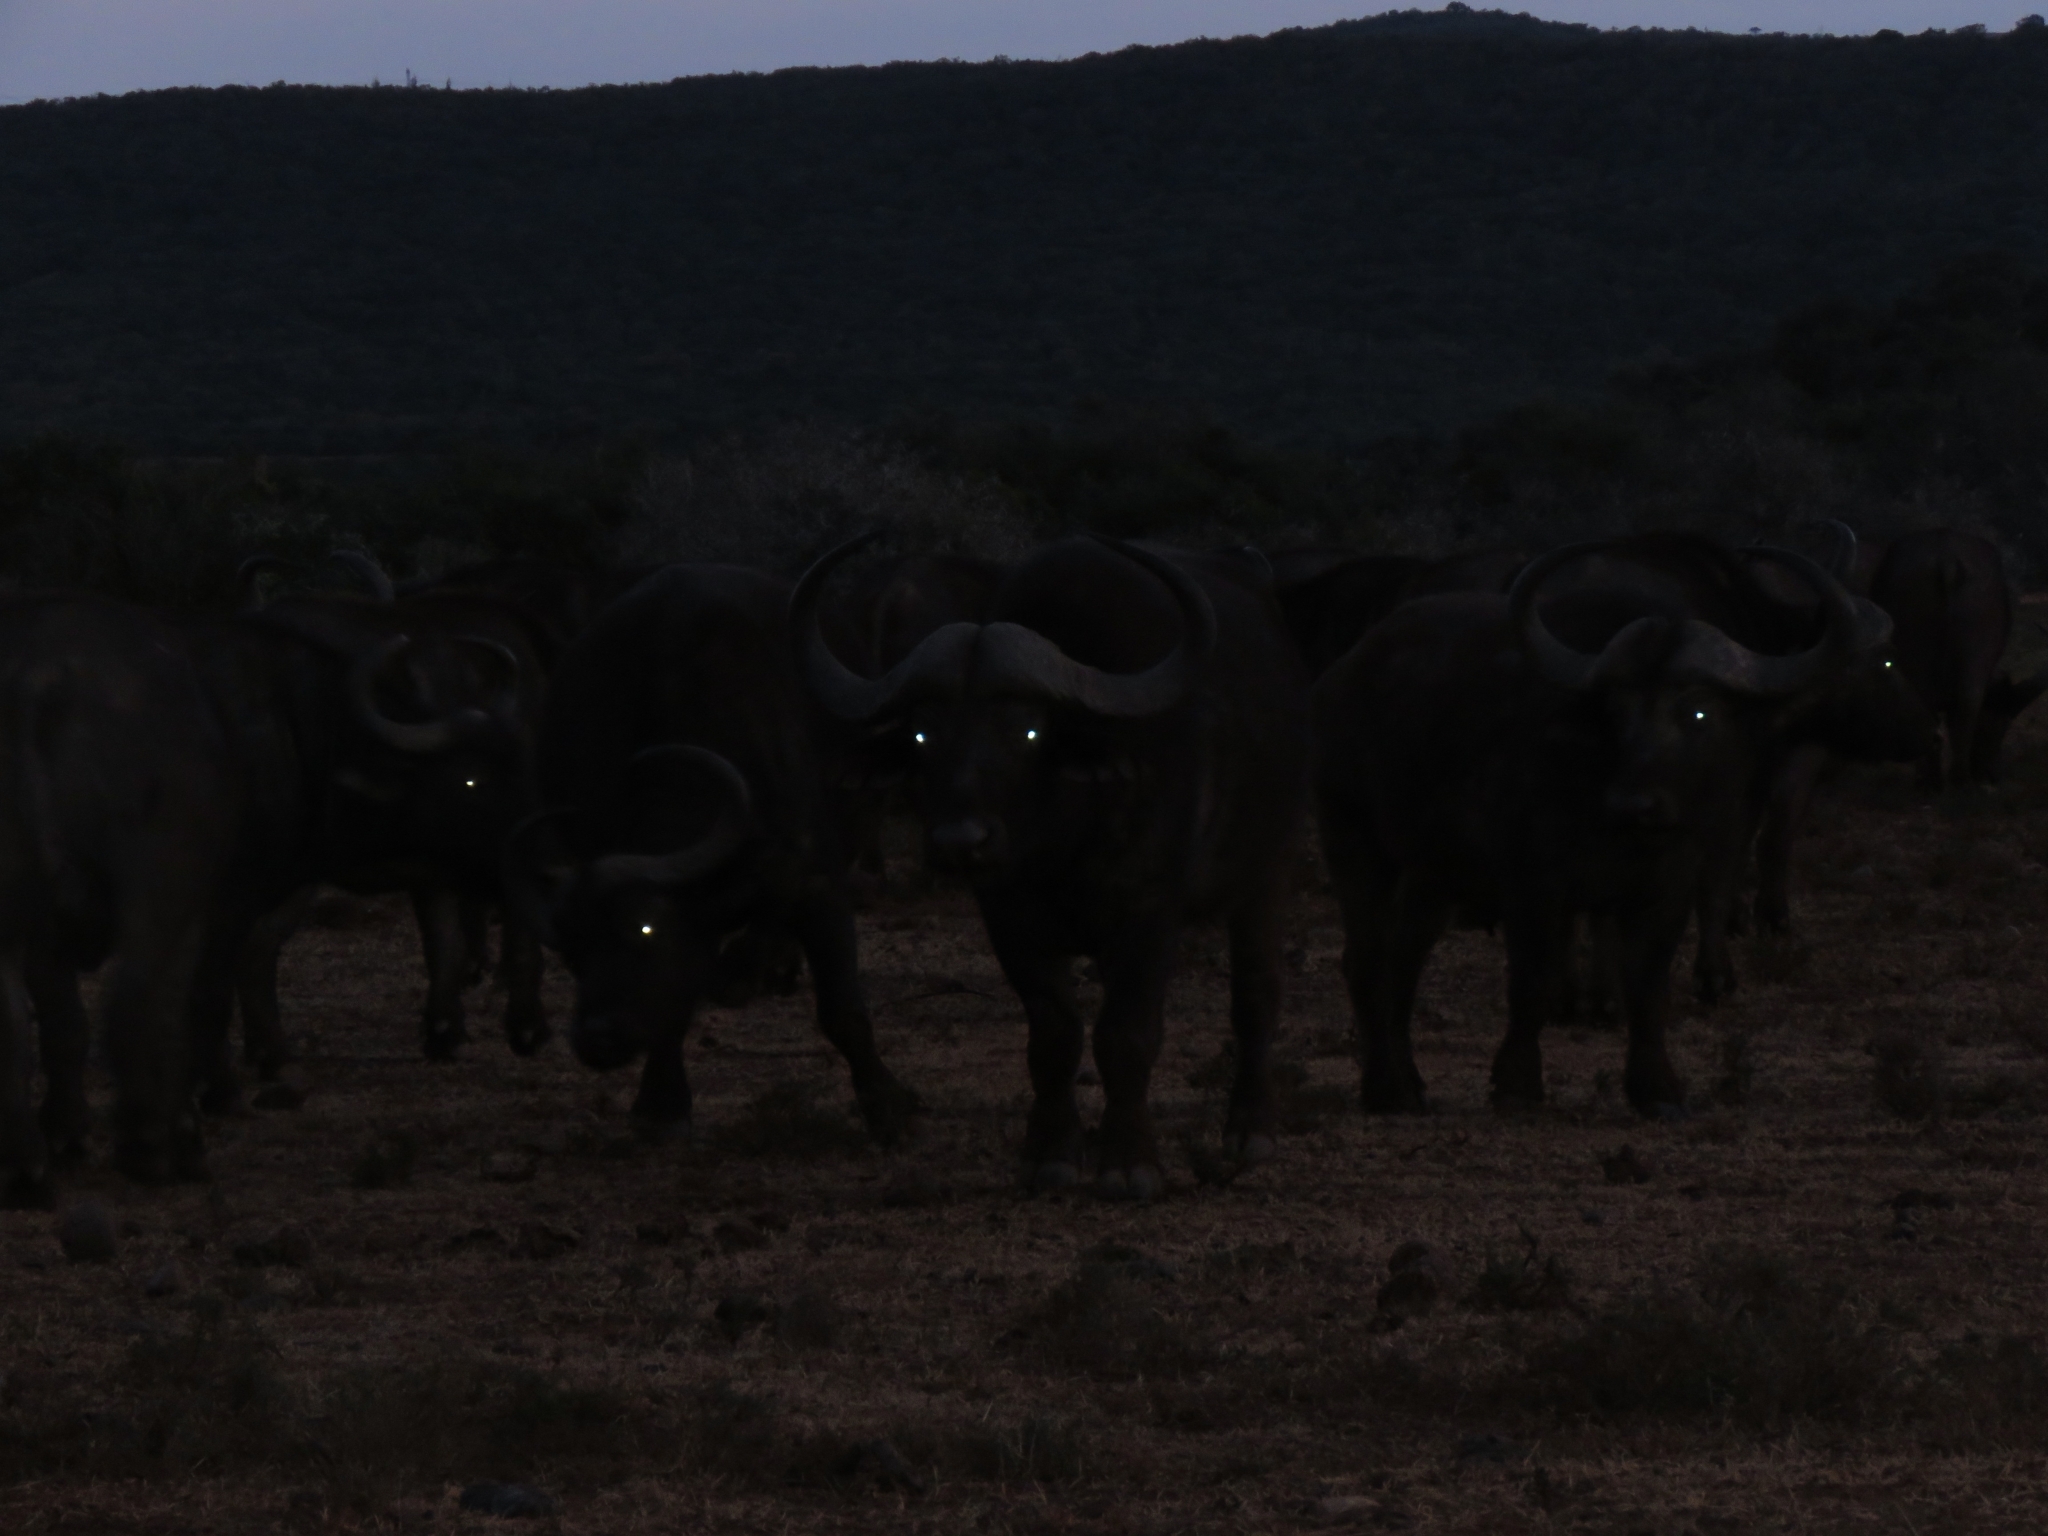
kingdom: Animalia
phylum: Chordata
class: Mammalia
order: Artiodactyla
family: Bovidae
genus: Syncerus
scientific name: Syncerus caffer
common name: African buffalo
